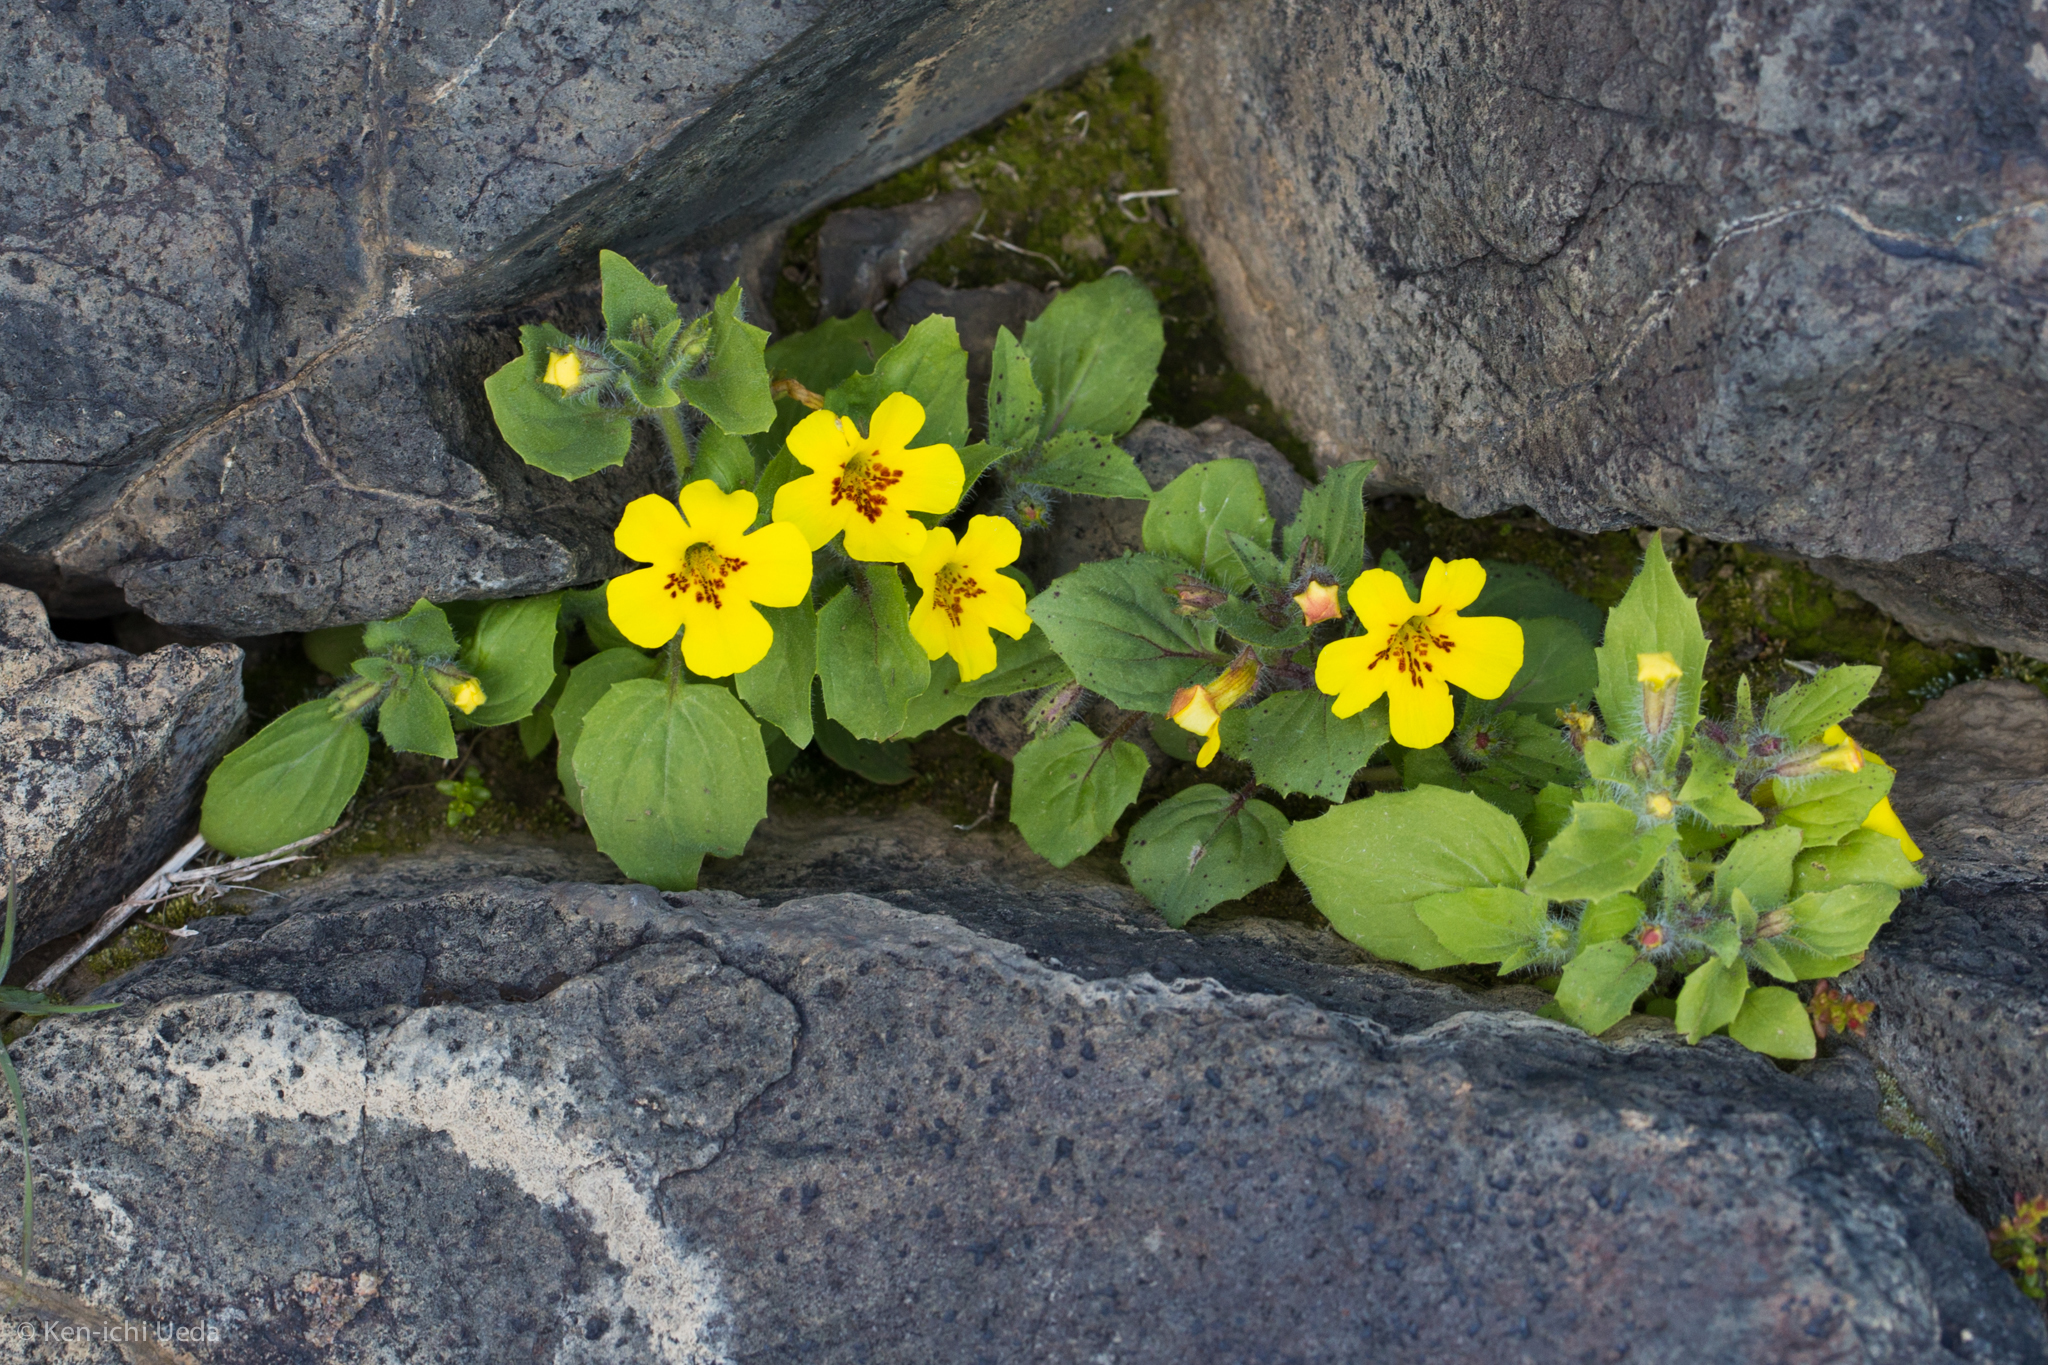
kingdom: Plantae
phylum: Tracheophyta
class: Magnoliopsida
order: Lamiales
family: Phrymaceae
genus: Erythranthe
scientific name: Erythranthe geniculata
